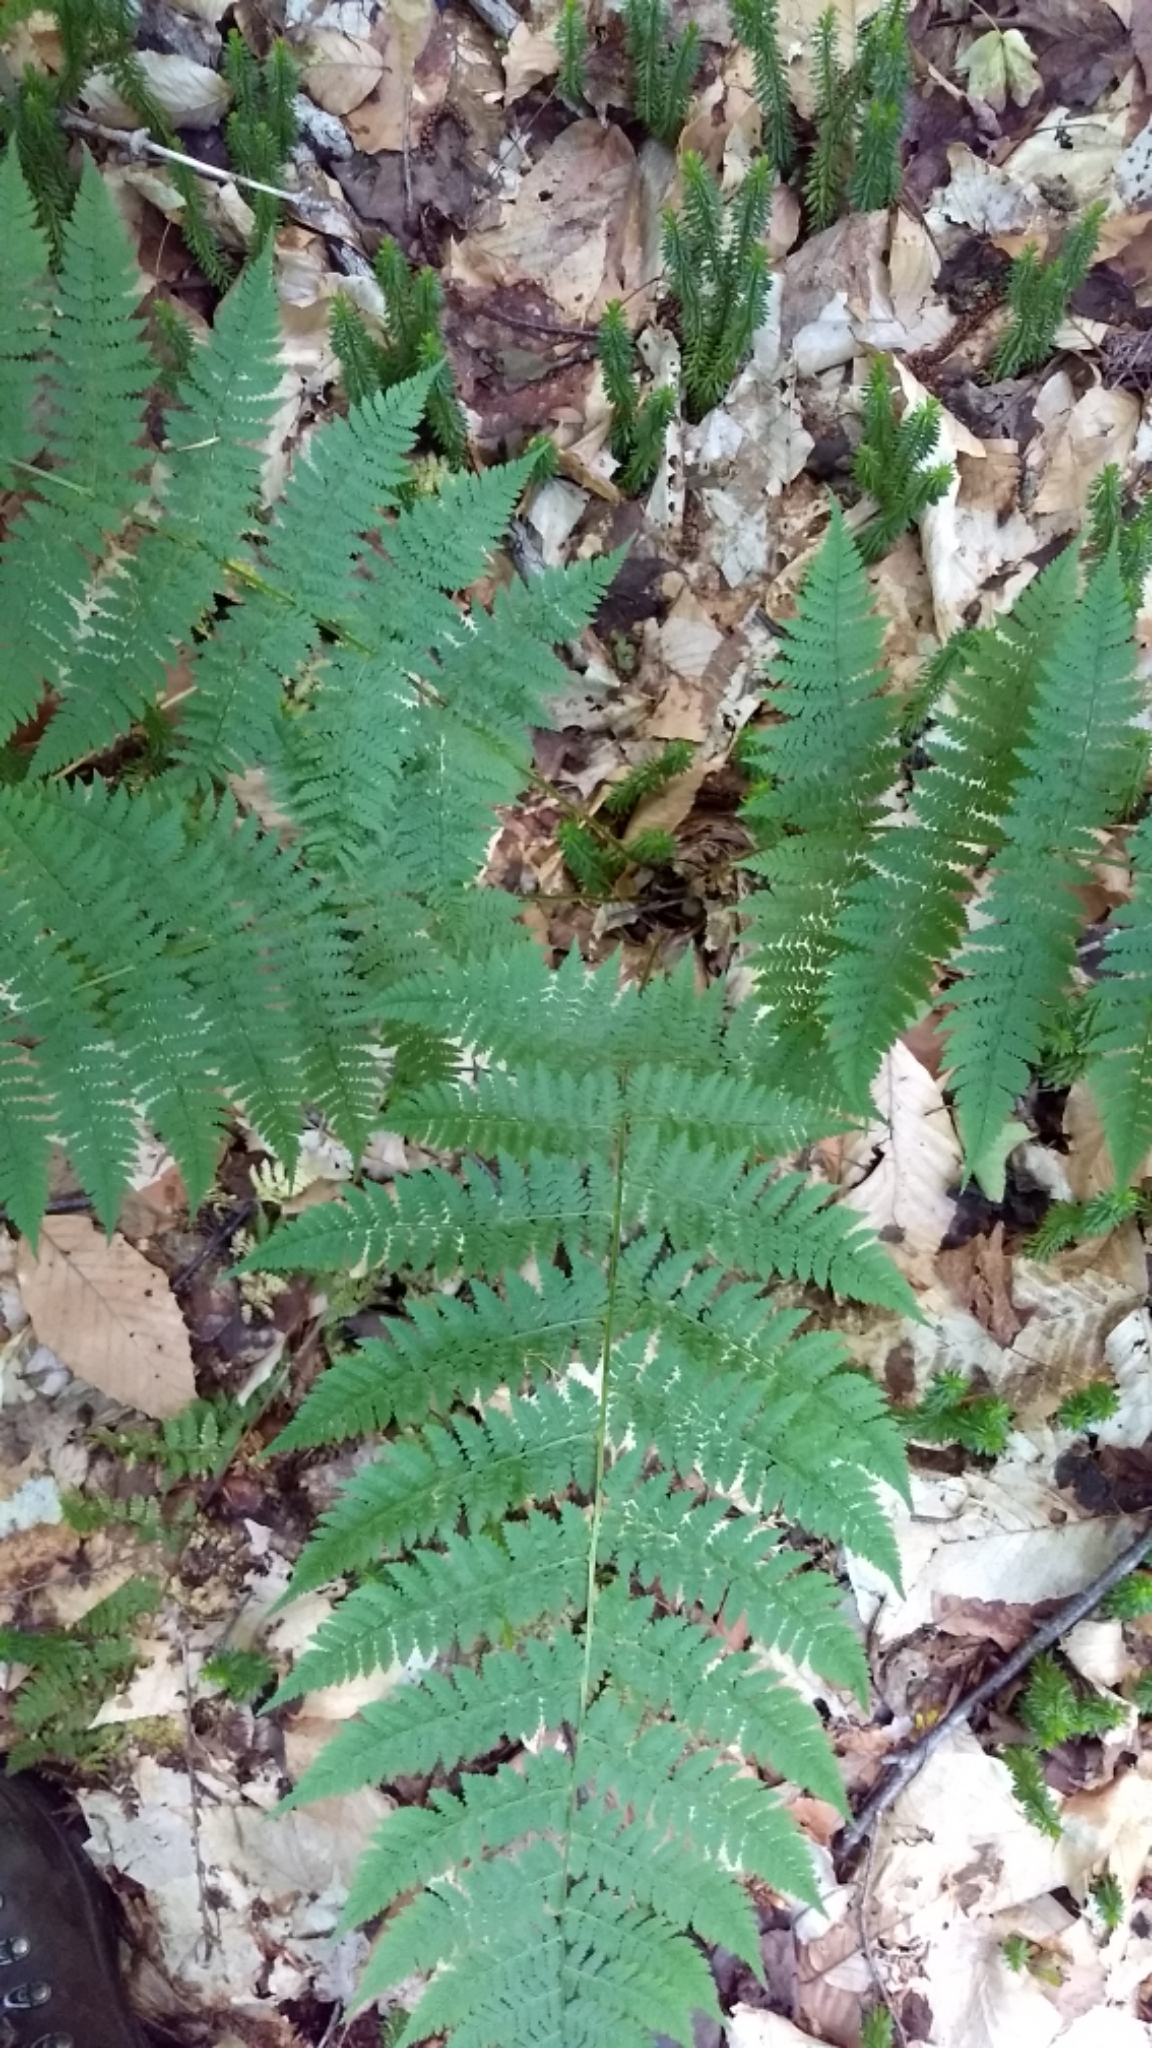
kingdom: Plantae
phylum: Tracheophyta
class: Polypodiopsida
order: Polypodiales
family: Dryopteridaceae
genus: Dryopteris
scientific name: Dryopteris intermedia
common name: Evergreen wood fern
